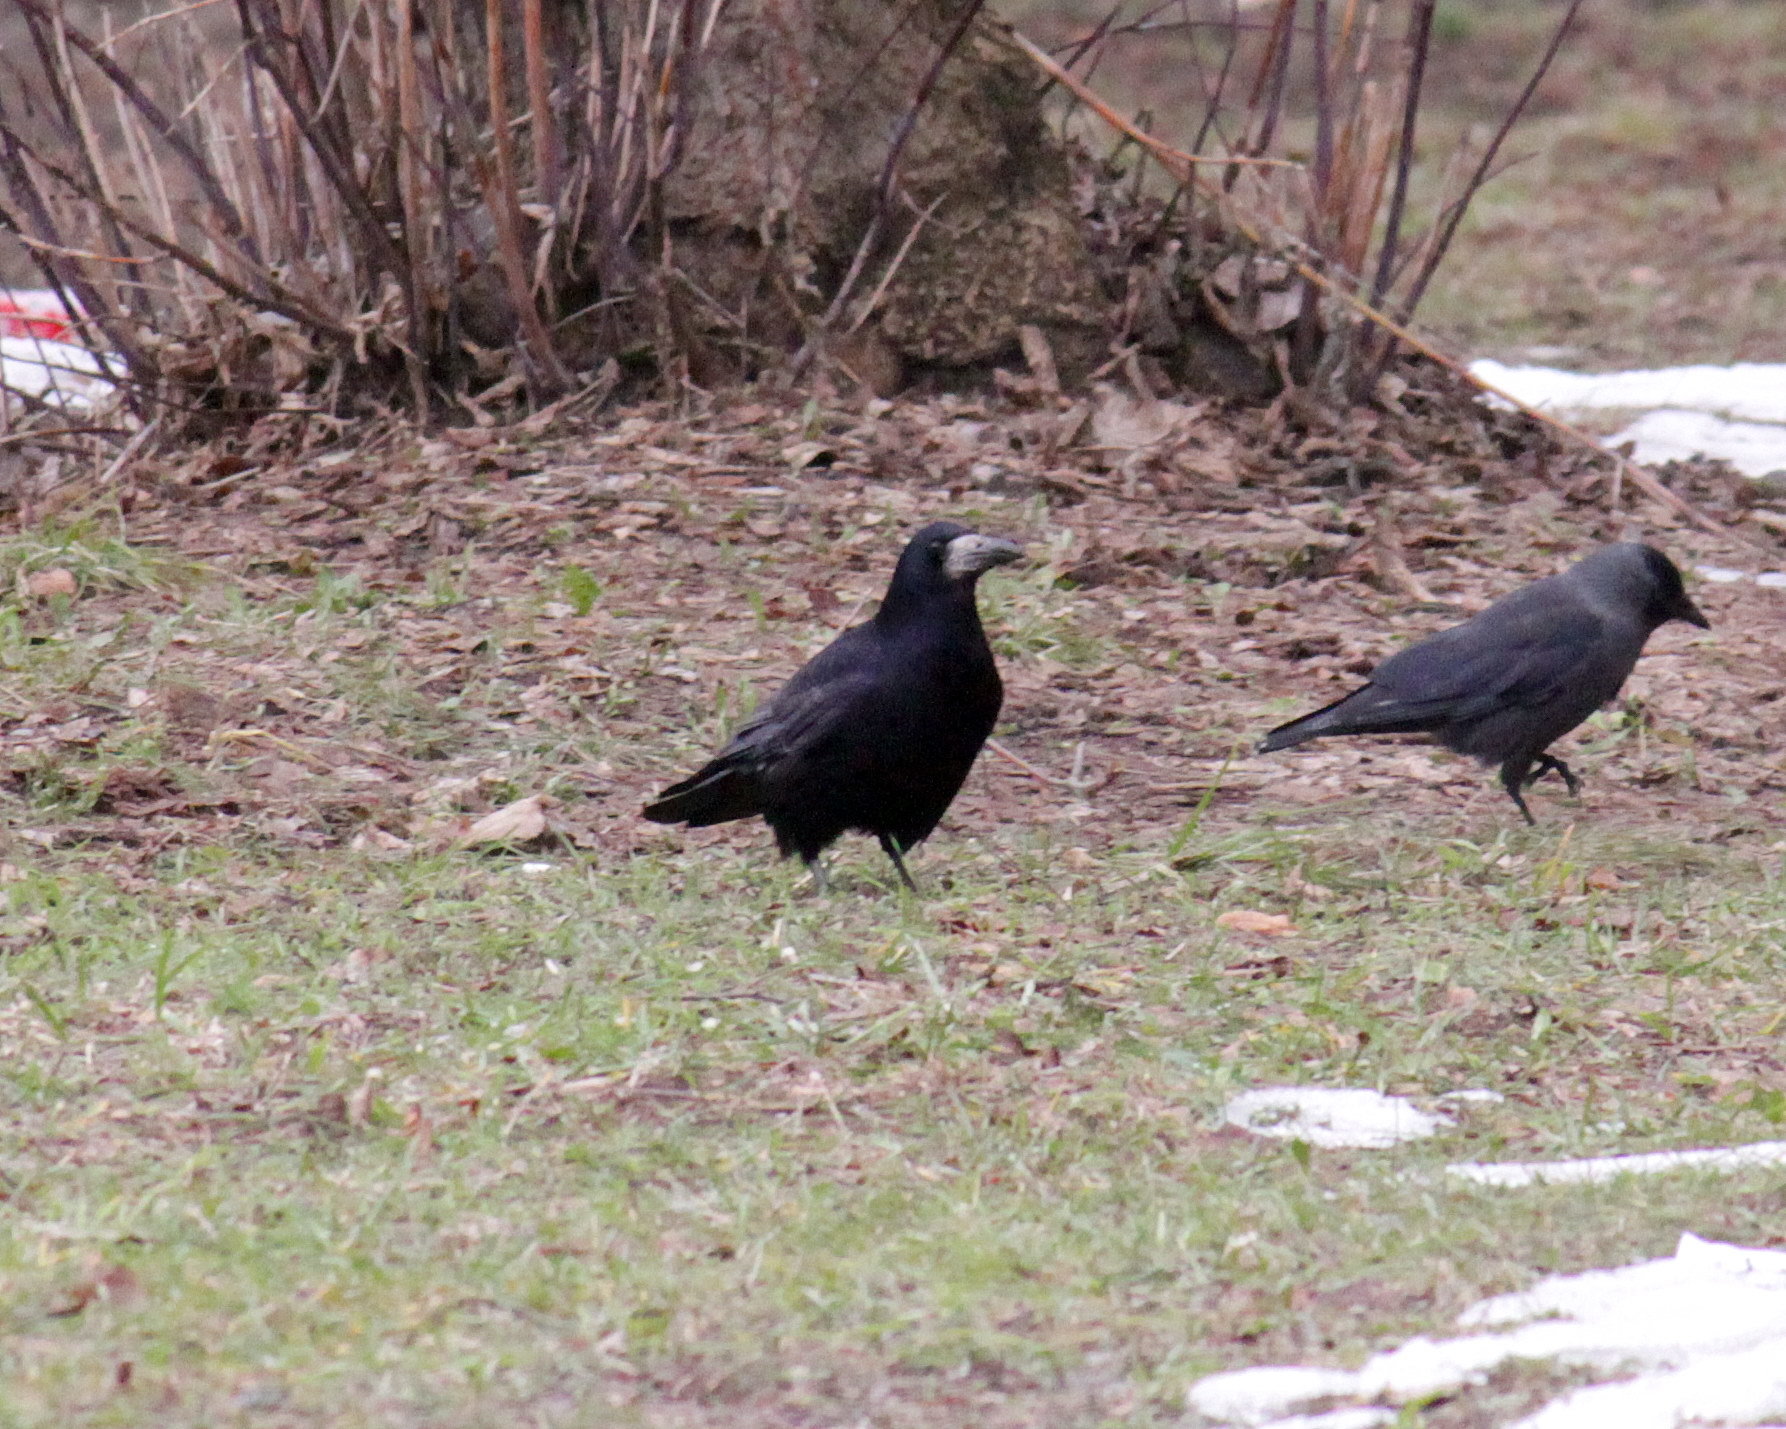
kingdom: Animalia
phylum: Chordata
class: Aves
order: Passeriformes
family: Corvidae
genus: Corvus
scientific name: Corvus frugilegus
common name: Rook
